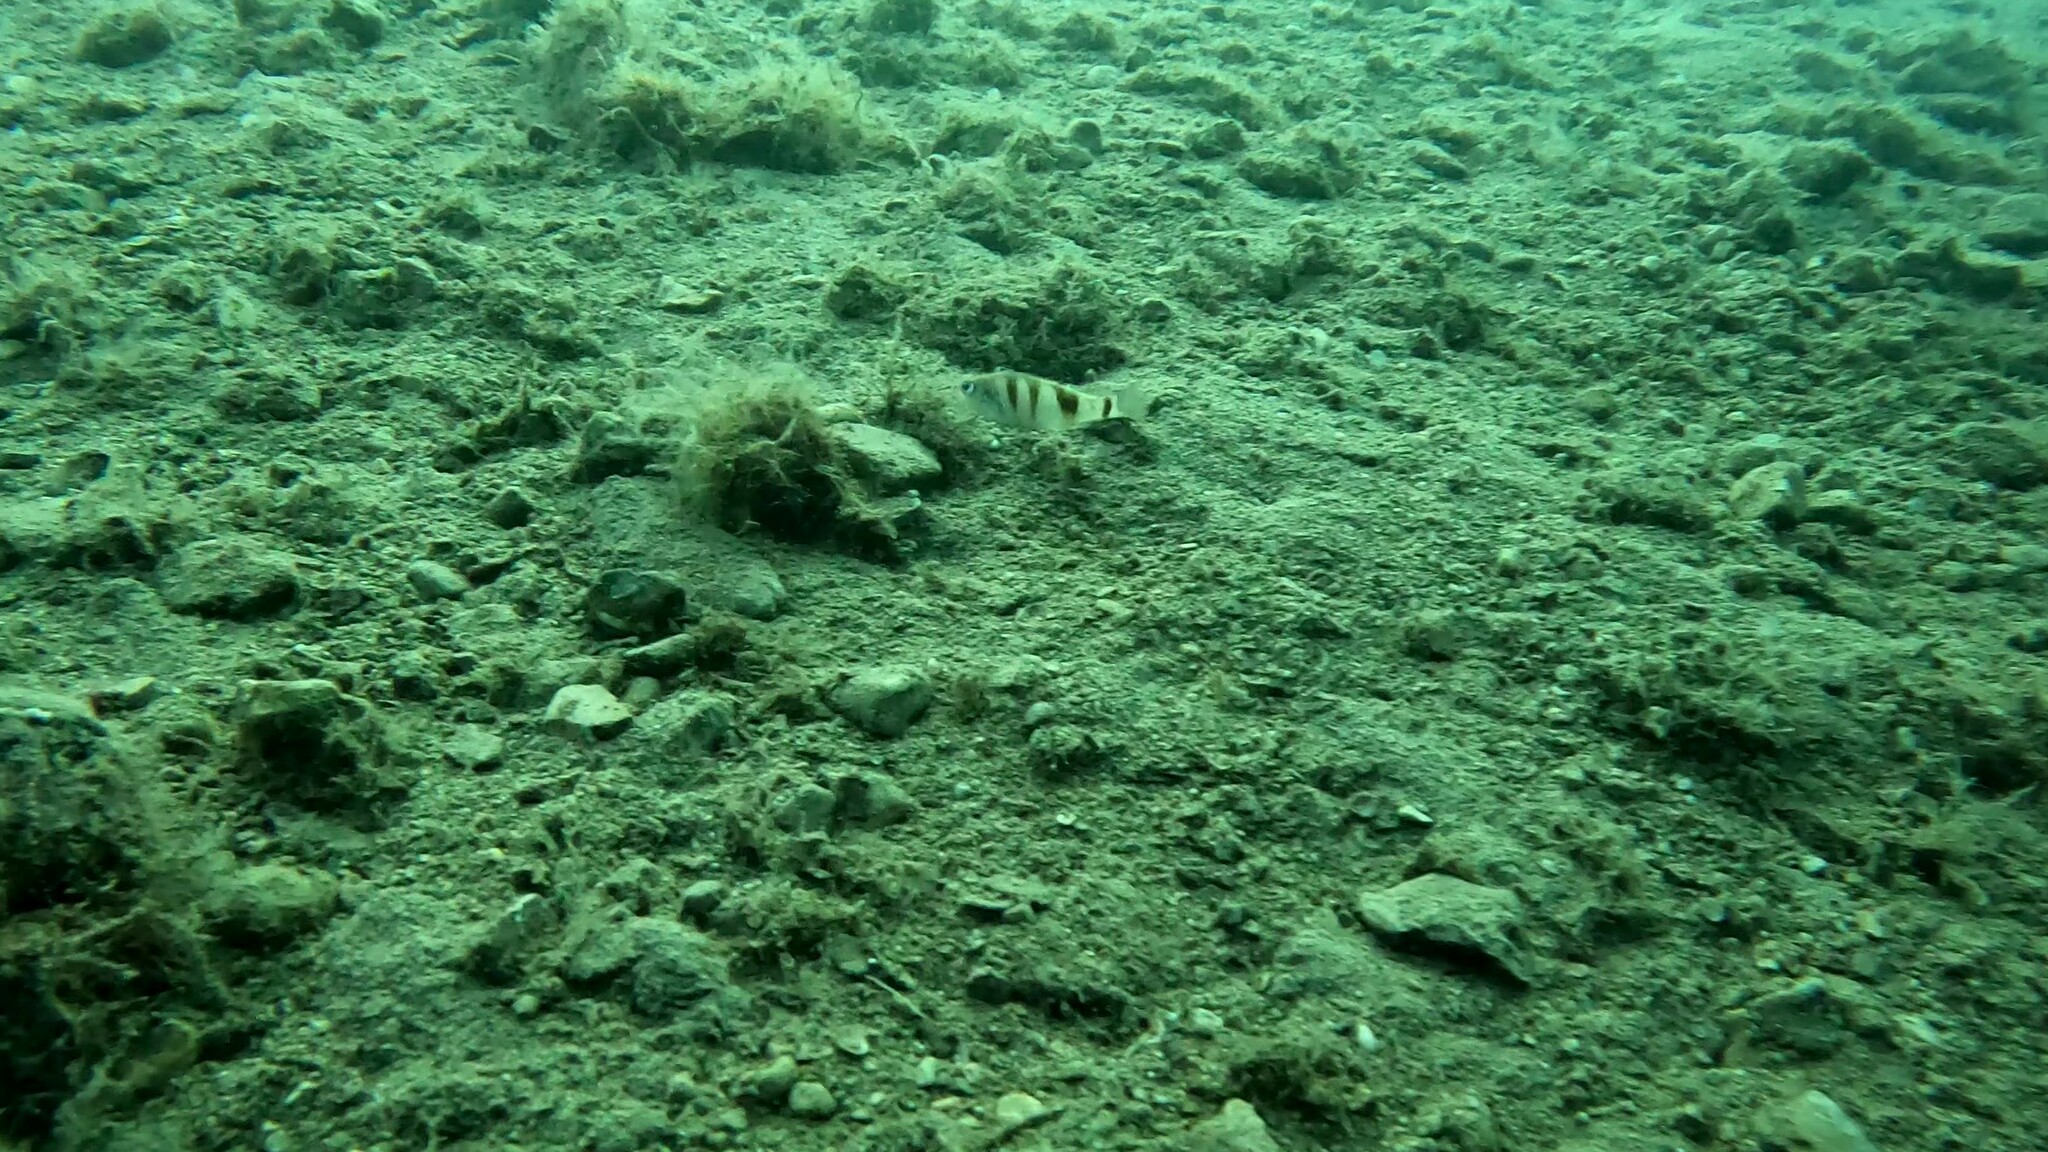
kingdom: Animalia
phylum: Chordata
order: Perciformes
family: Serranidae
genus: Serranus
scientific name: Serranus hepatus
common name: Brown comber
